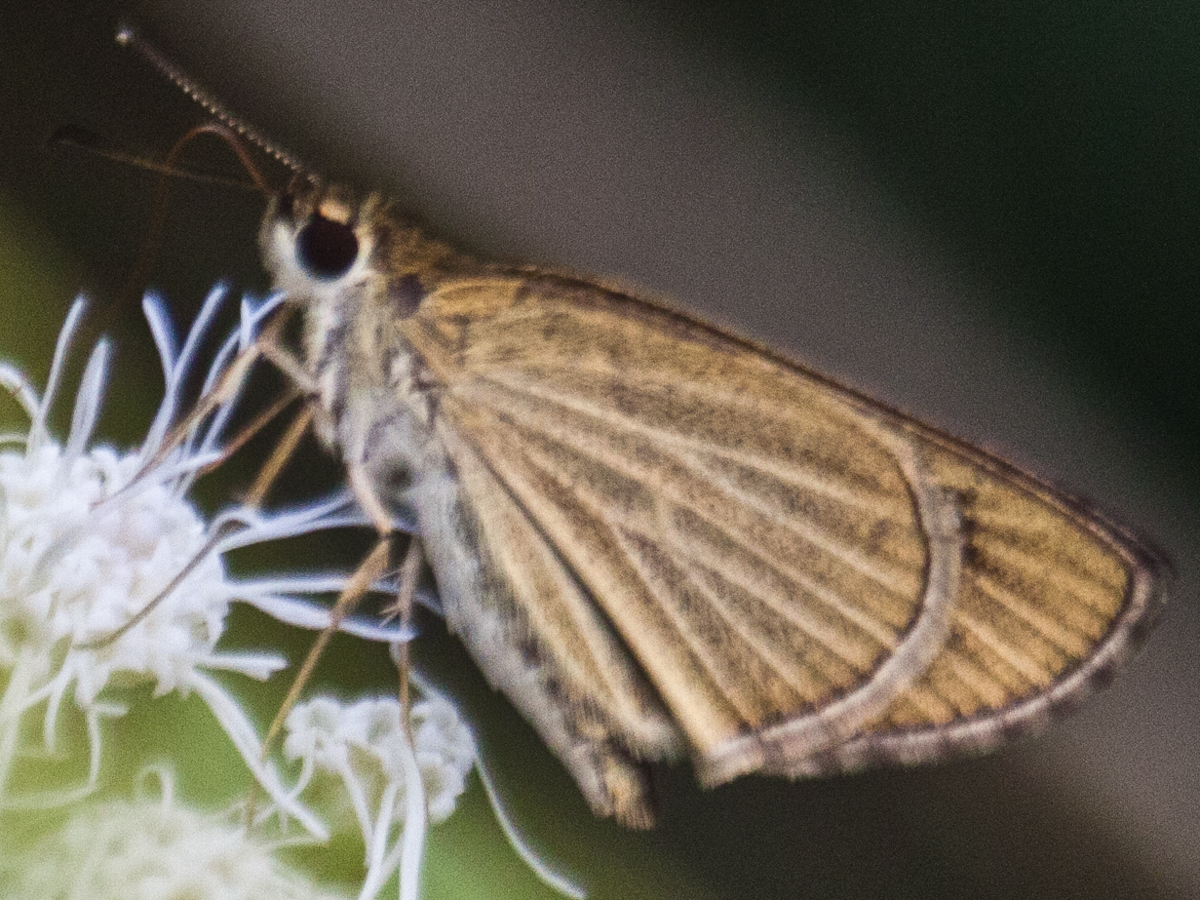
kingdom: Animalia
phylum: Arthropoda
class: Insecta
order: Lepidoptera
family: Hesperiidae
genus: Suada
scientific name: Suada swerga
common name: Grass bob
